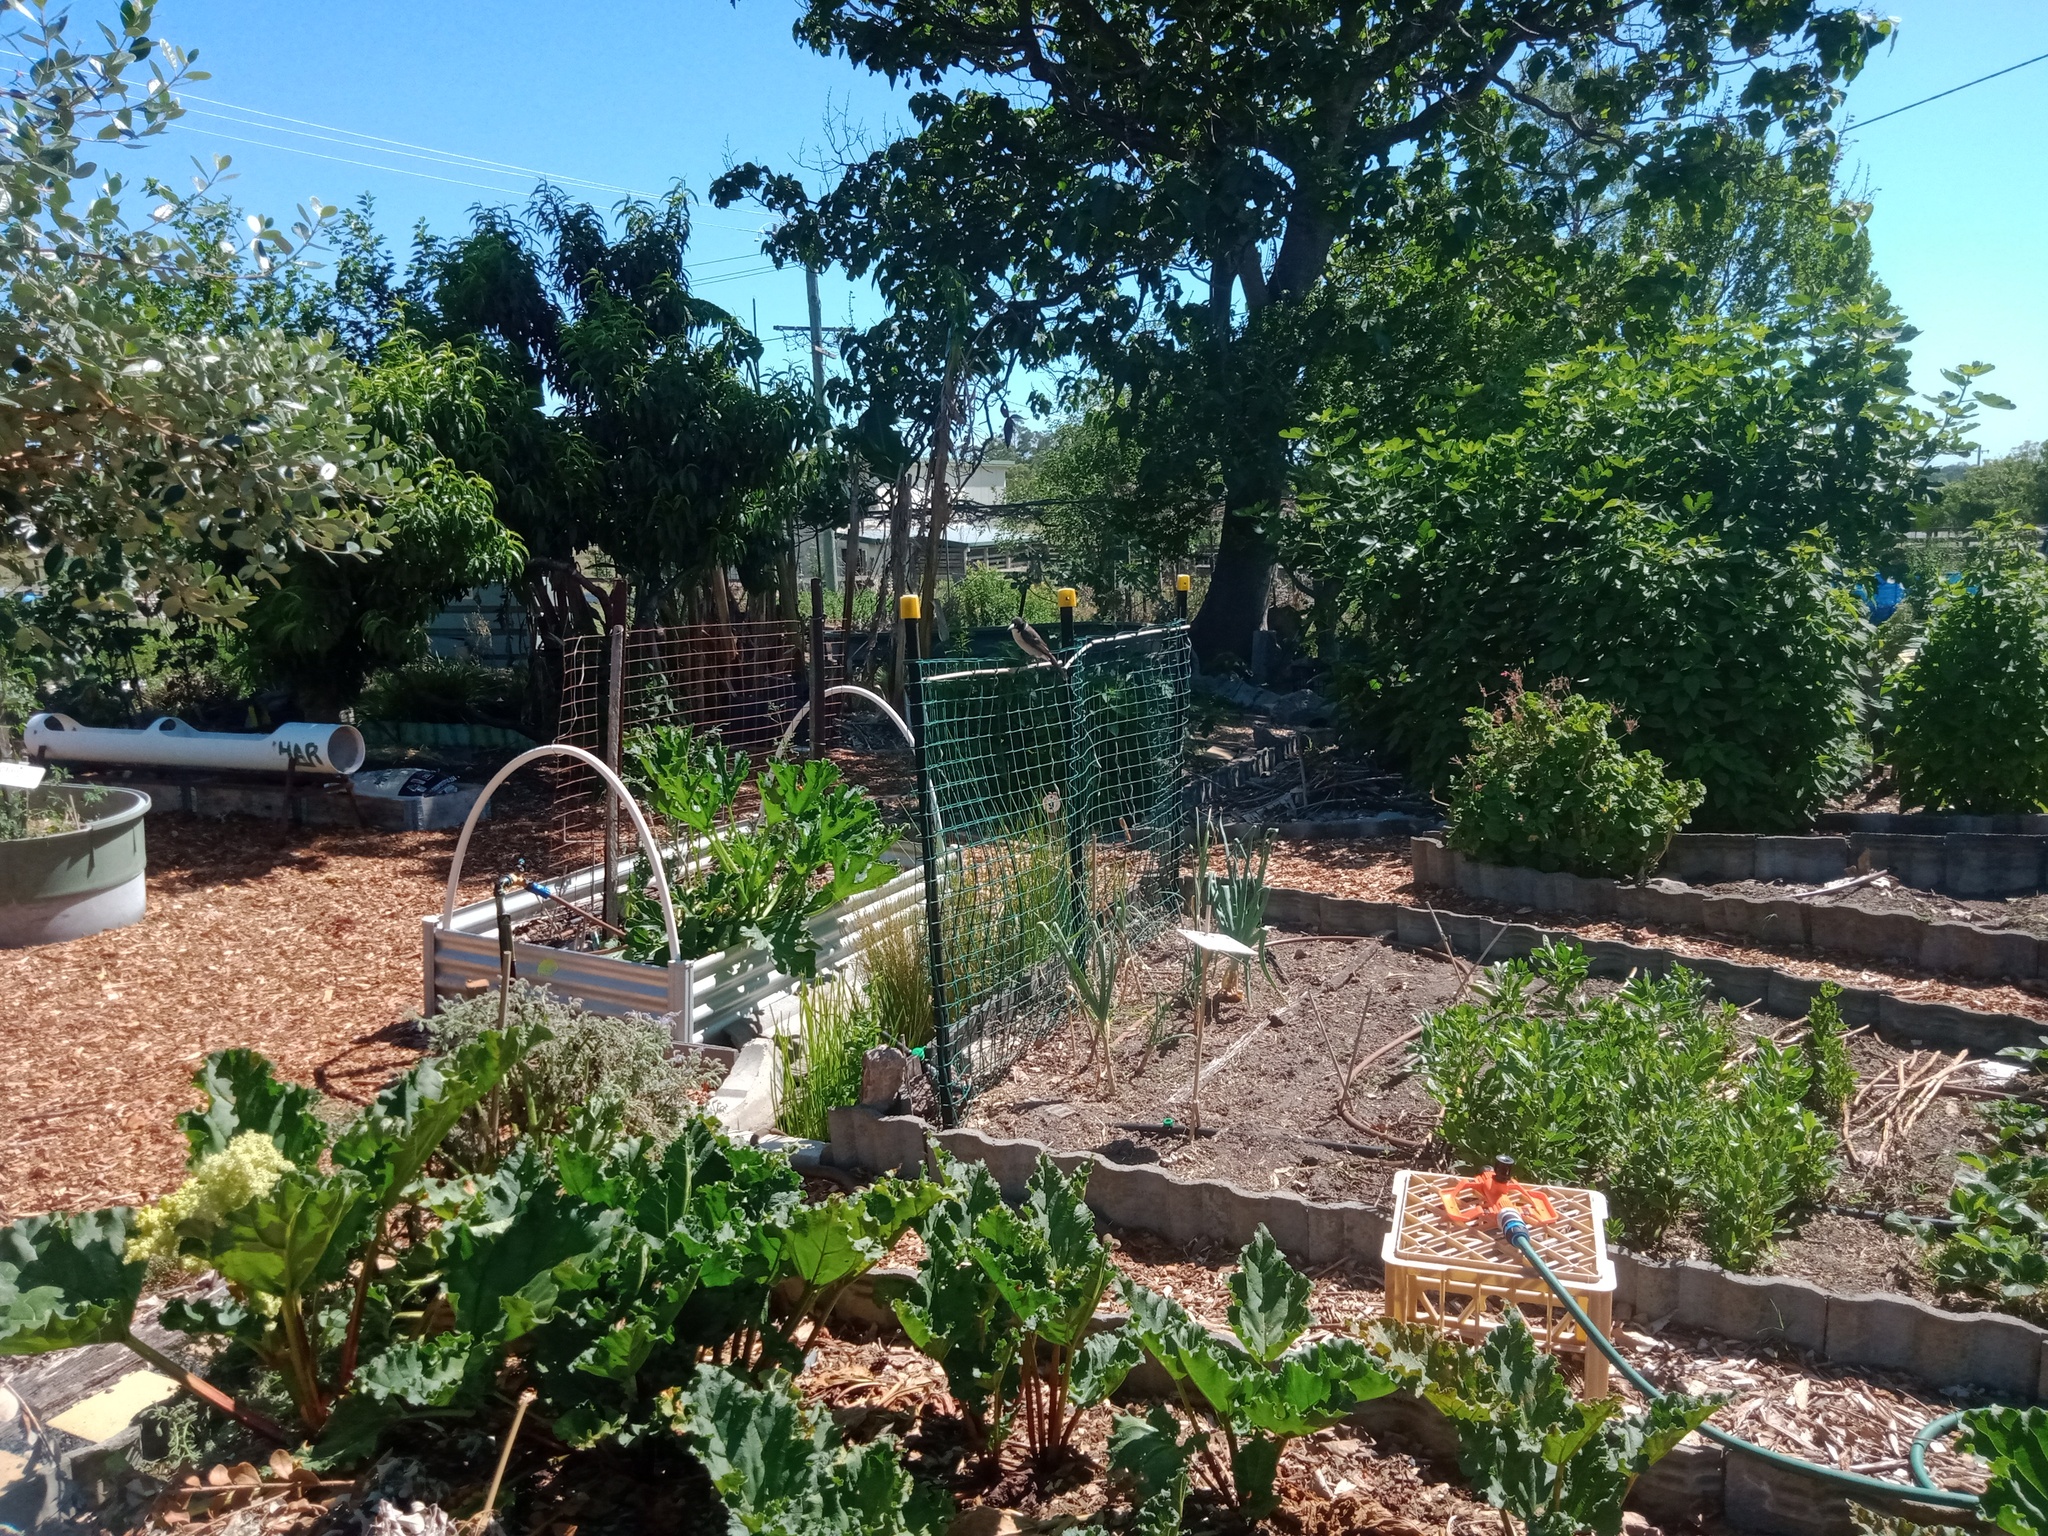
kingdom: Animalia
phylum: Chordata
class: Aves
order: Passeriformes
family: Cracticidae
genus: Cracticus
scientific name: Cracticus torquatus
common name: Grey butcherbird
